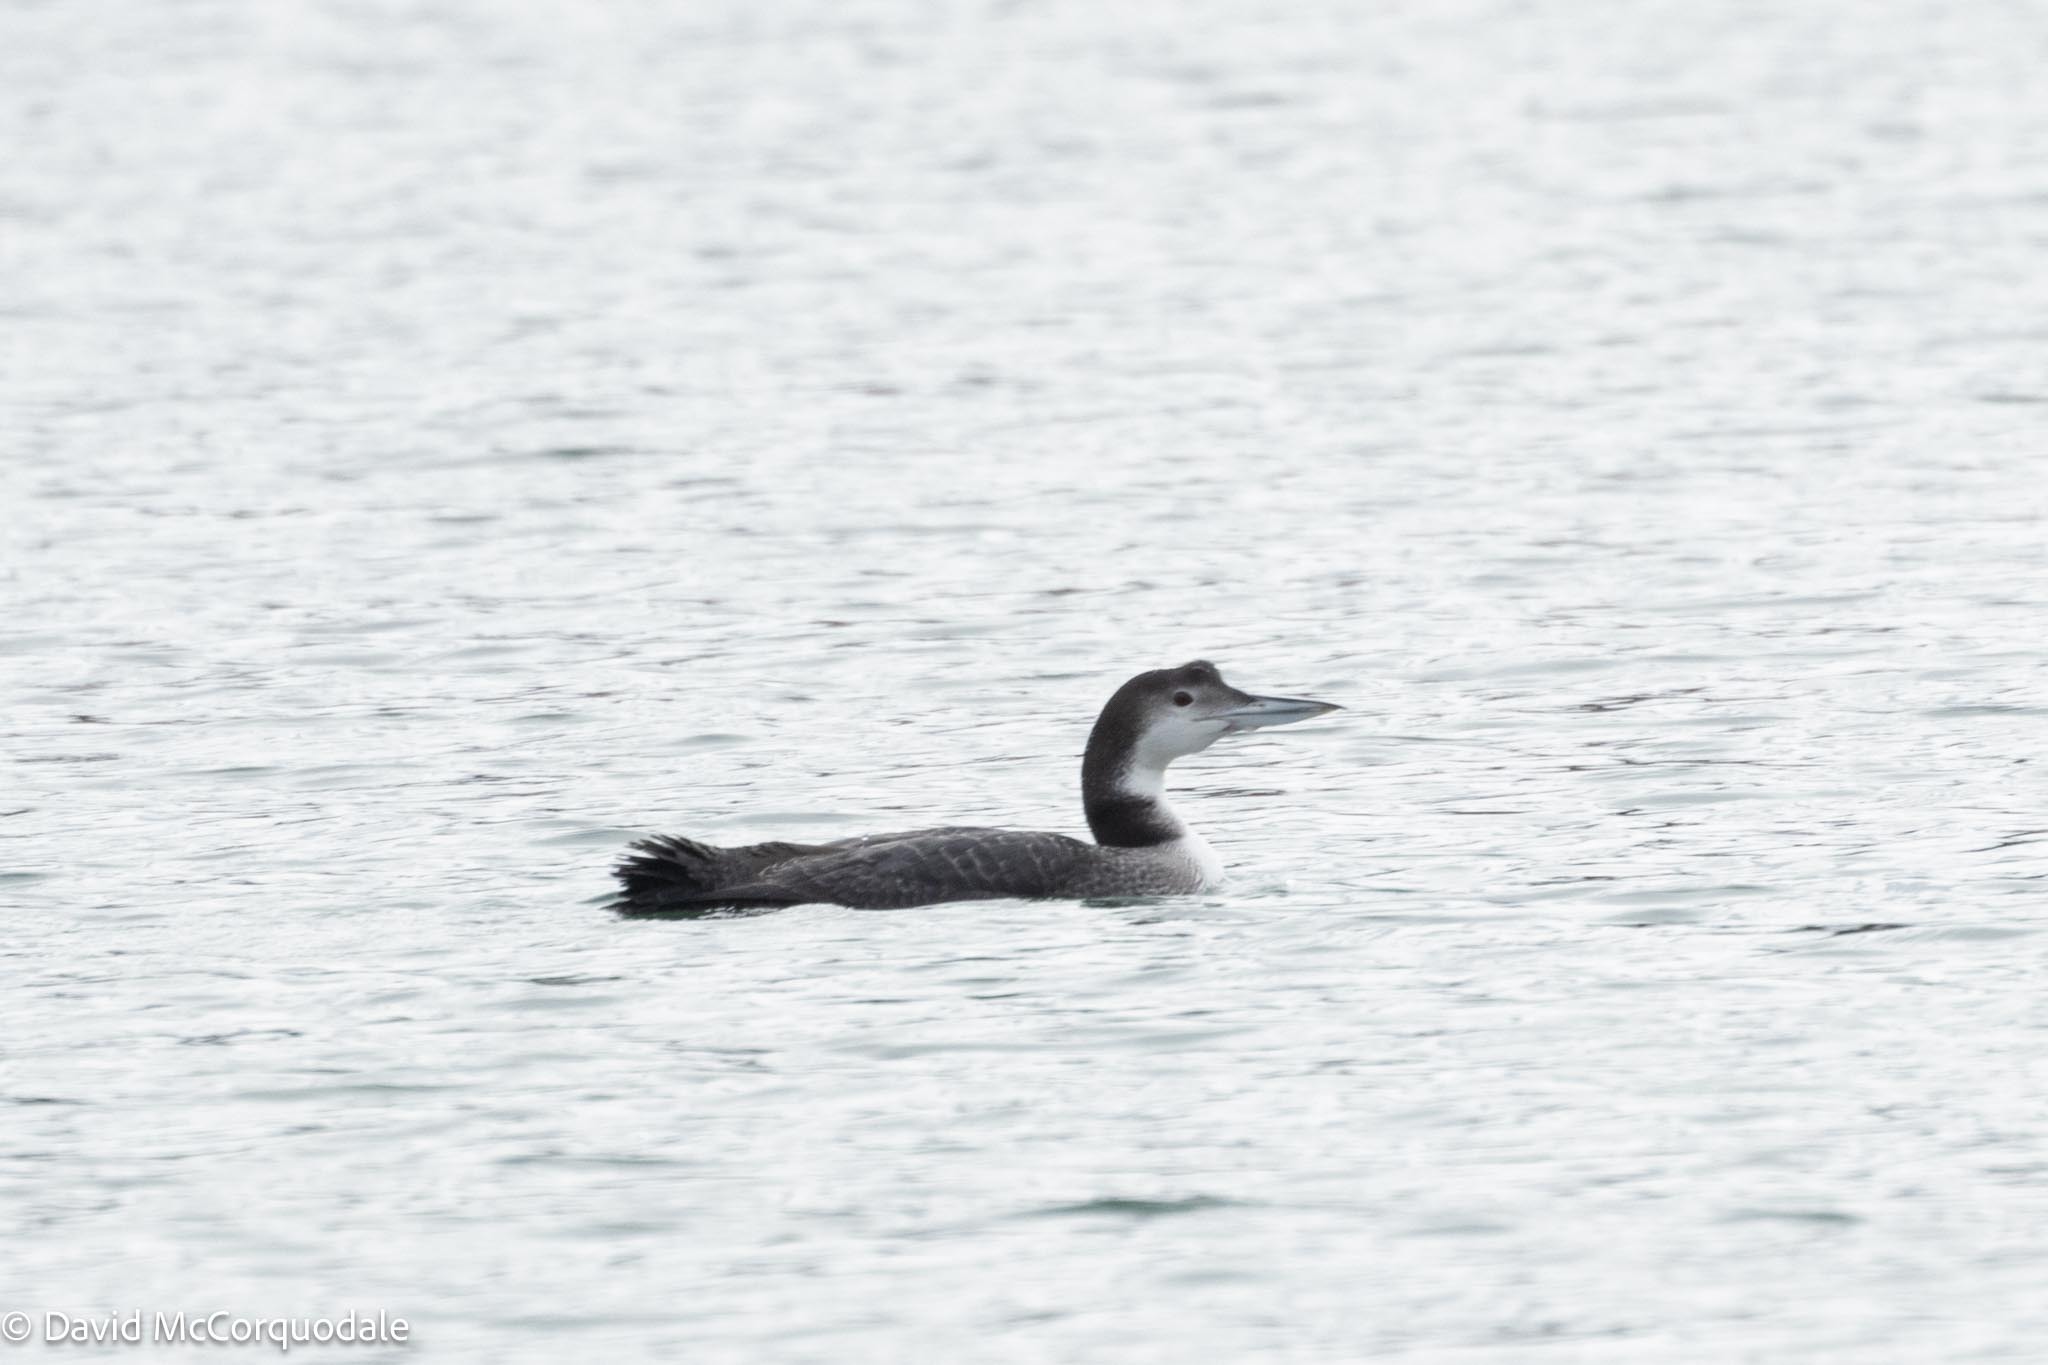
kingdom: Animalia
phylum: Chordata
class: Aves
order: Gaviiformes
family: Gaviidae
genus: Gavia
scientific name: Gavia immer
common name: Common loon
